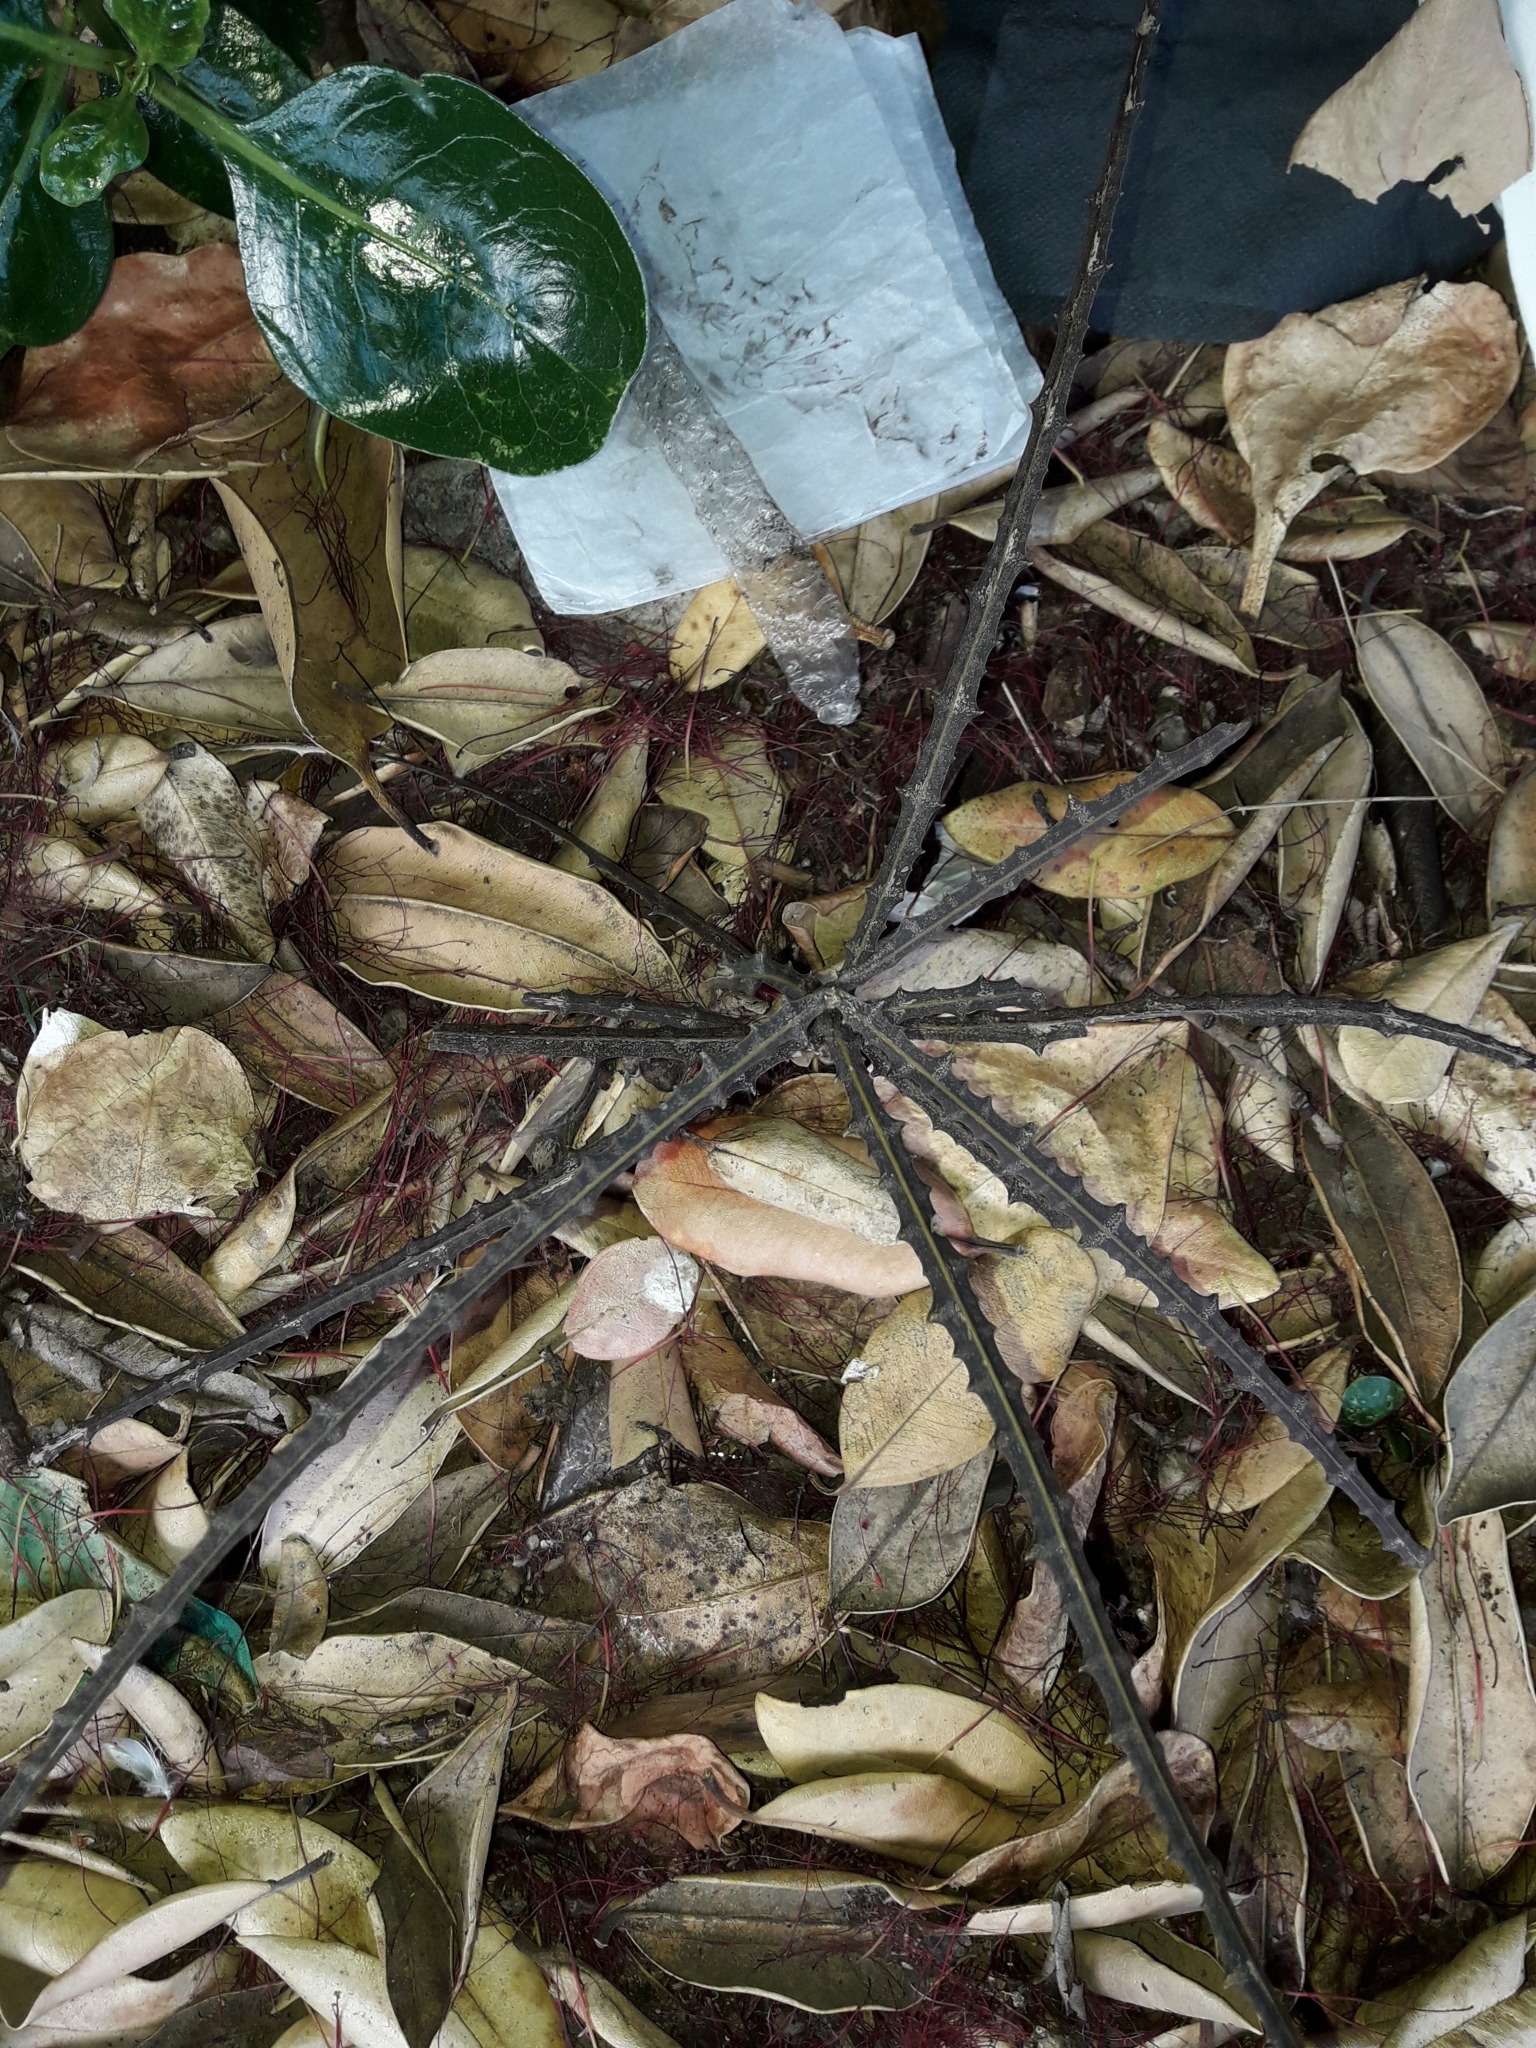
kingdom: Plantae
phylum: Tracheophyta
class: Magnoliopsida
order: Apiales
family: Araliaceae
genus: Pseudopanax
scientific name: Pseudopanax ferox
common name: Fierce lancewood
